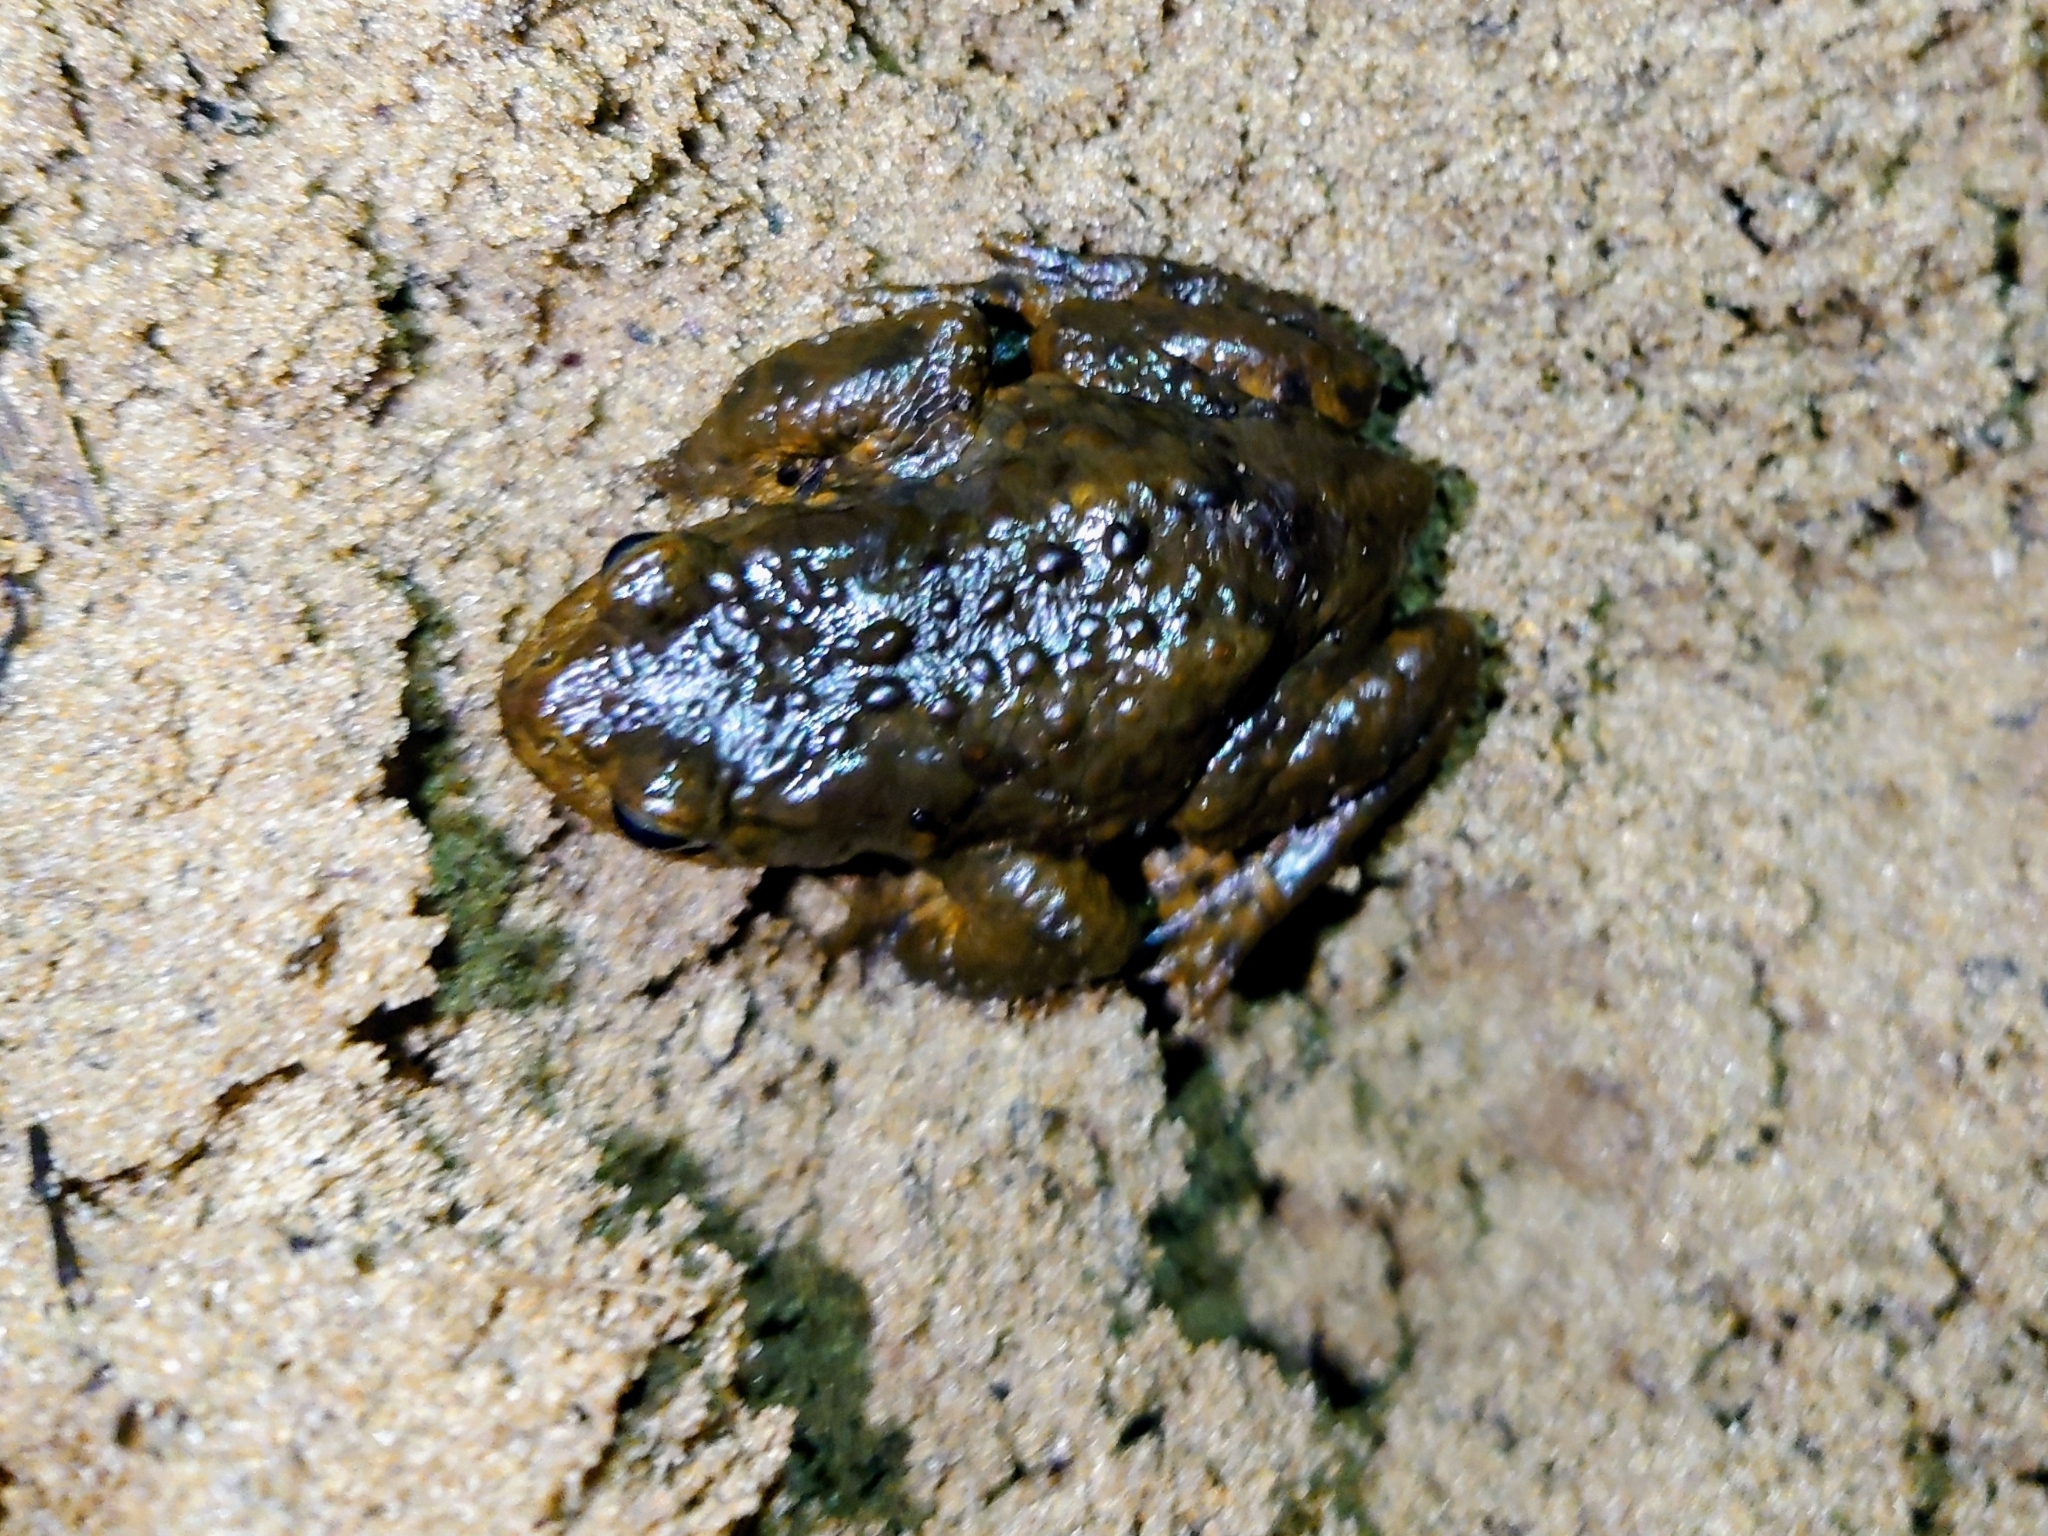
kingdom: Animalia
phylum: Chordata
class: Amphibia
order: Anura
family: Bufonidae
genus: Bufo
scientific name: Bufo bufo
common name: Common toad
